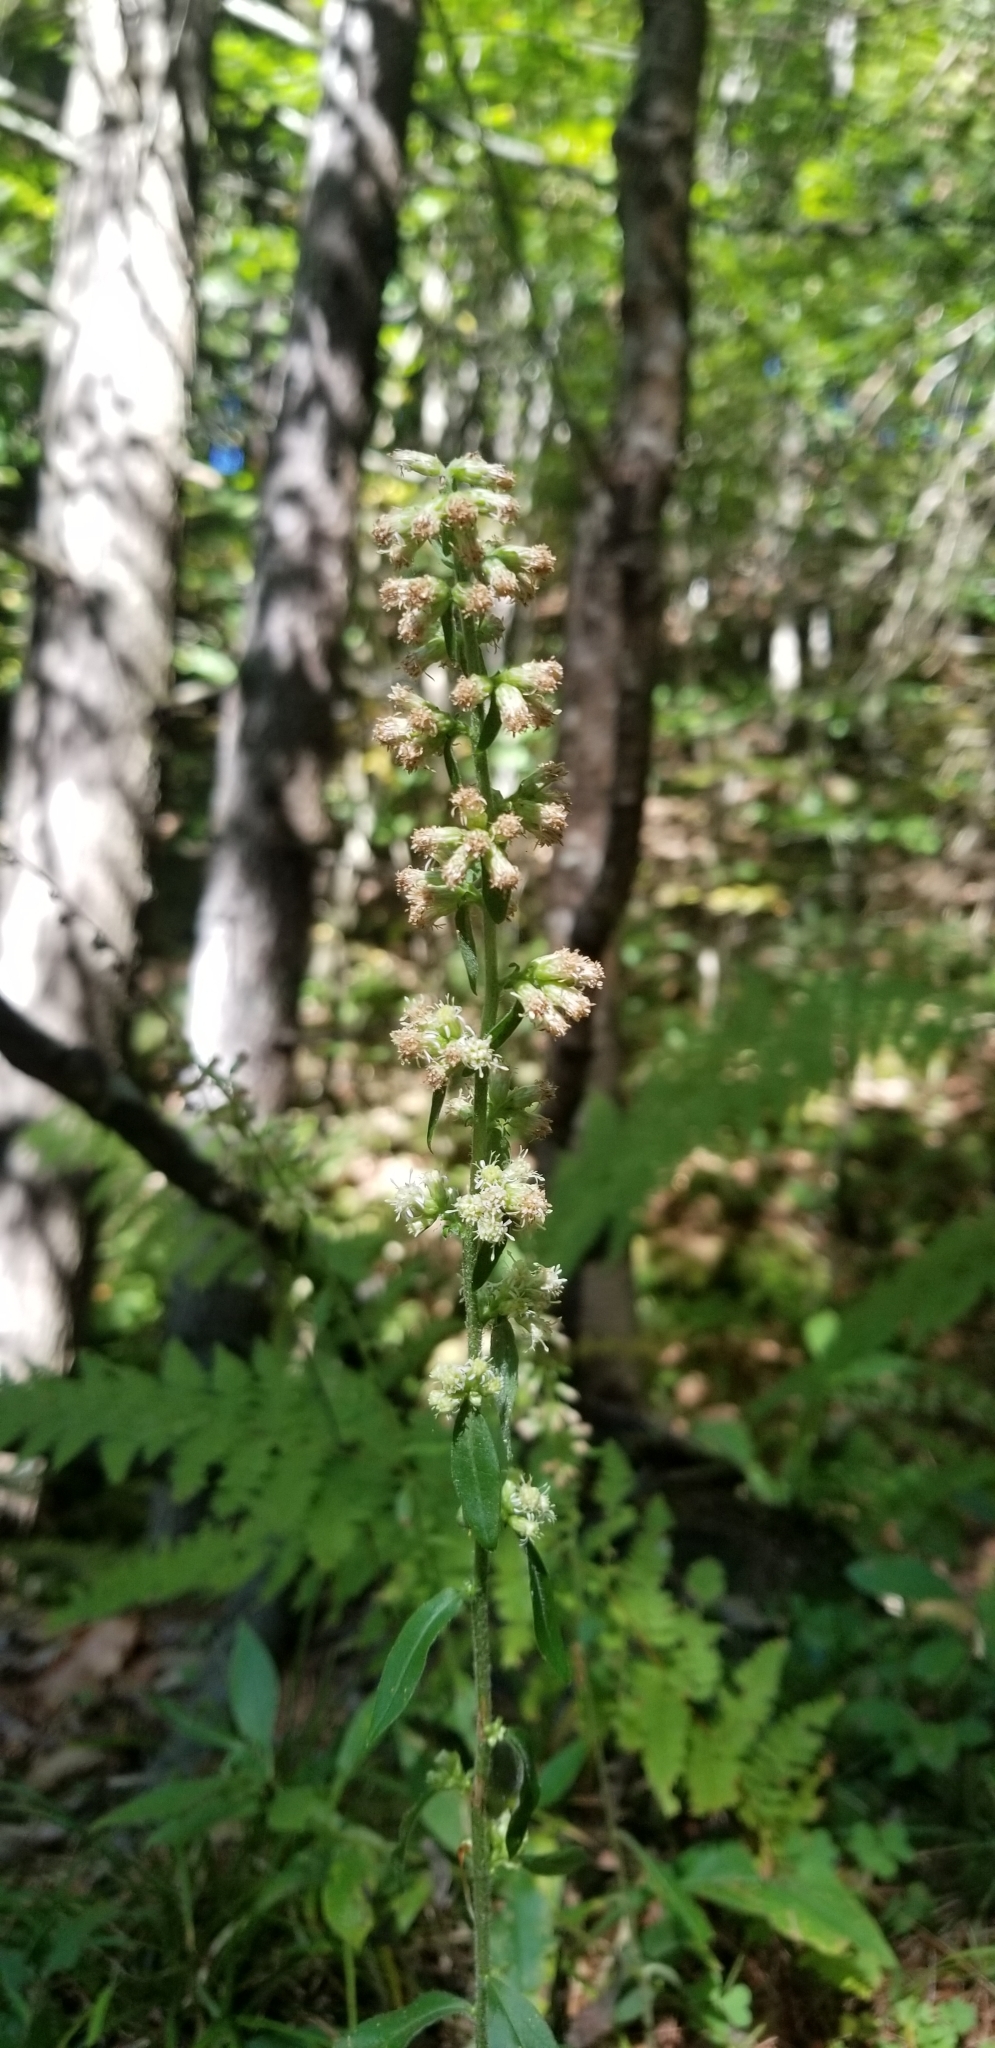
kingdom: Plantae
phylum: Tracheophyta
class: Magnoliopsida
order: Asterales
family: Asteraceae
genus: Solidago
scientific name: Solidago bicolor
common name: Silverrod
